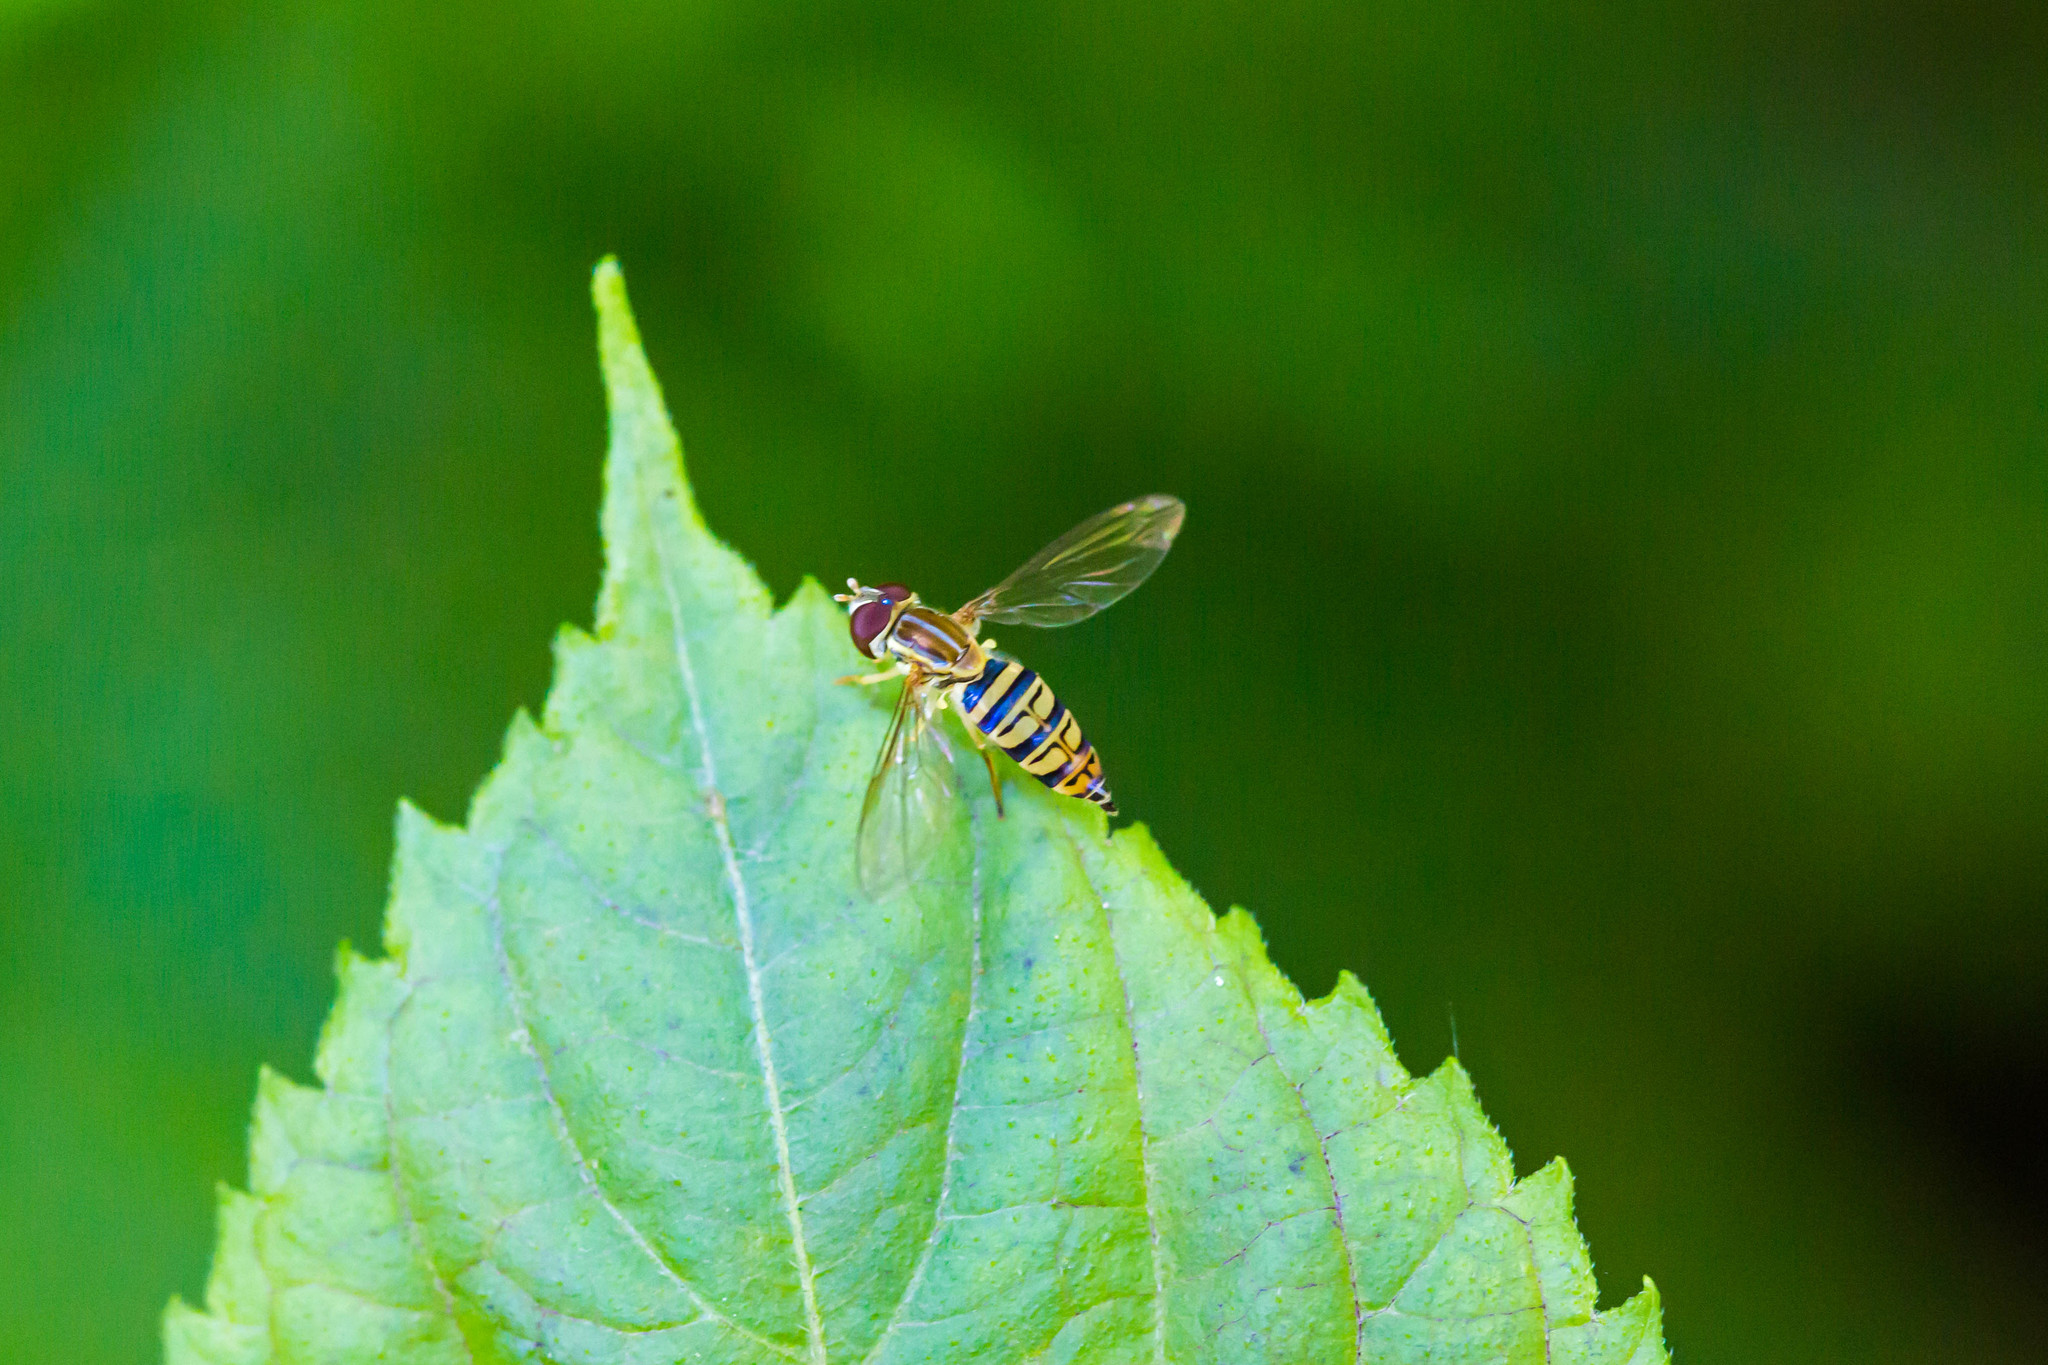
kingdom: Animalia
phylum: Arthropoda
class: Insecta
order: Diptera
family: Syrphidae
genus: Toxomerus
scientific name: Toxomerus politus
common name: Maize calligrapher
